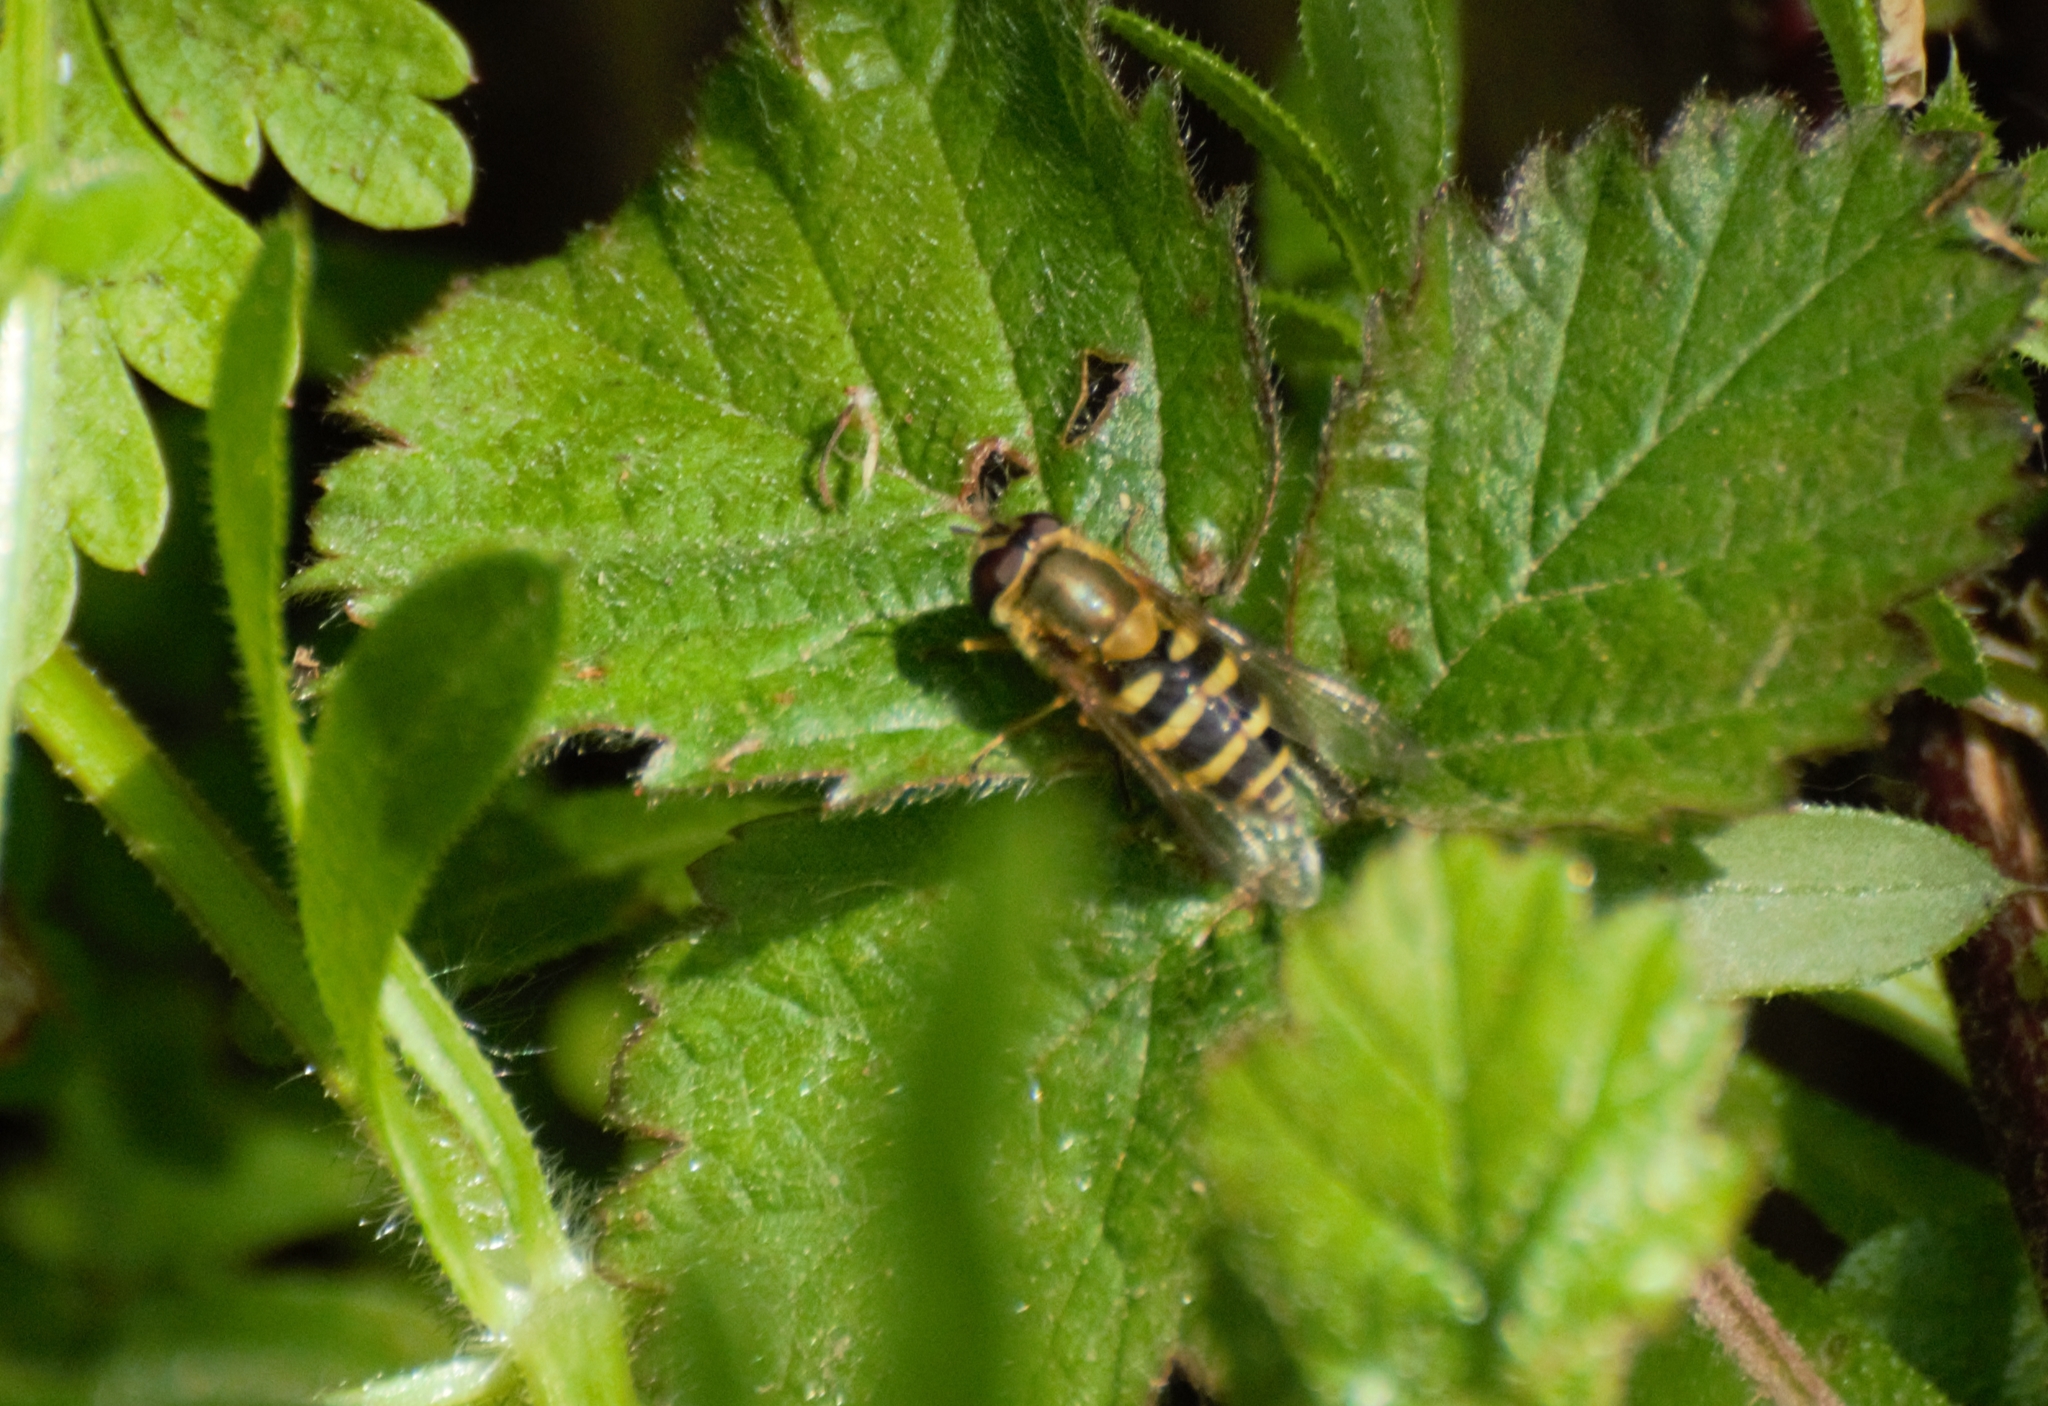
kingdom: Animalia
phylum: Arthropoda
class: Insecta
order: Diptera
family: Syrphidae
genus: Syrphus
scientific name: Syrphus
